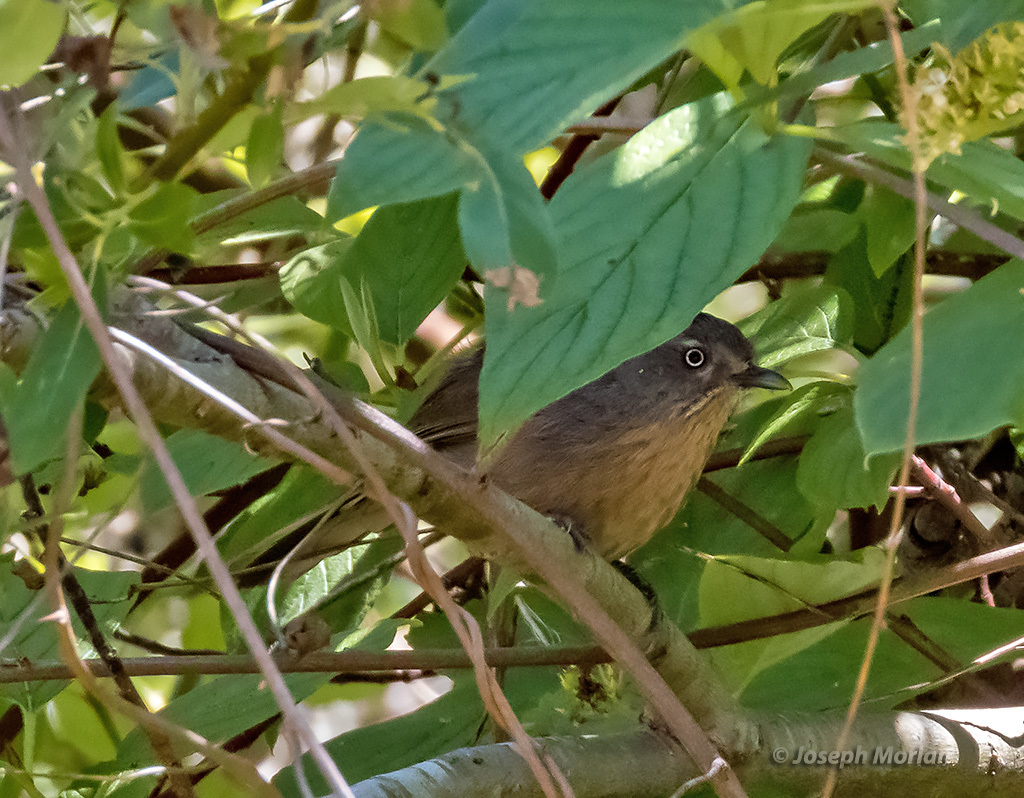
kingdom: Animalia
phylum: Chordata
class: Aves
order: Passeriformes
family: Sylviidae
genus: Chamaea
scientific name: Chamaea fasciata
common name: Wrentit
